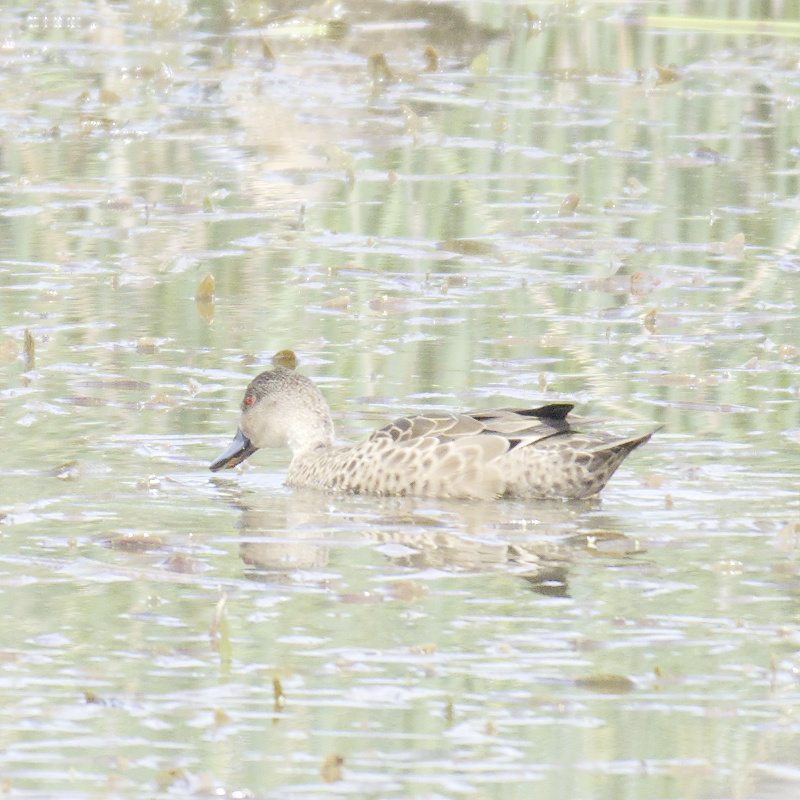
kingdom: Animalia
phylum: Chordata
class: Aves
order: Anseriformes
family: Anatidae
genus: Anas
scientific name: Anas gracilis
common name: Grey teal
